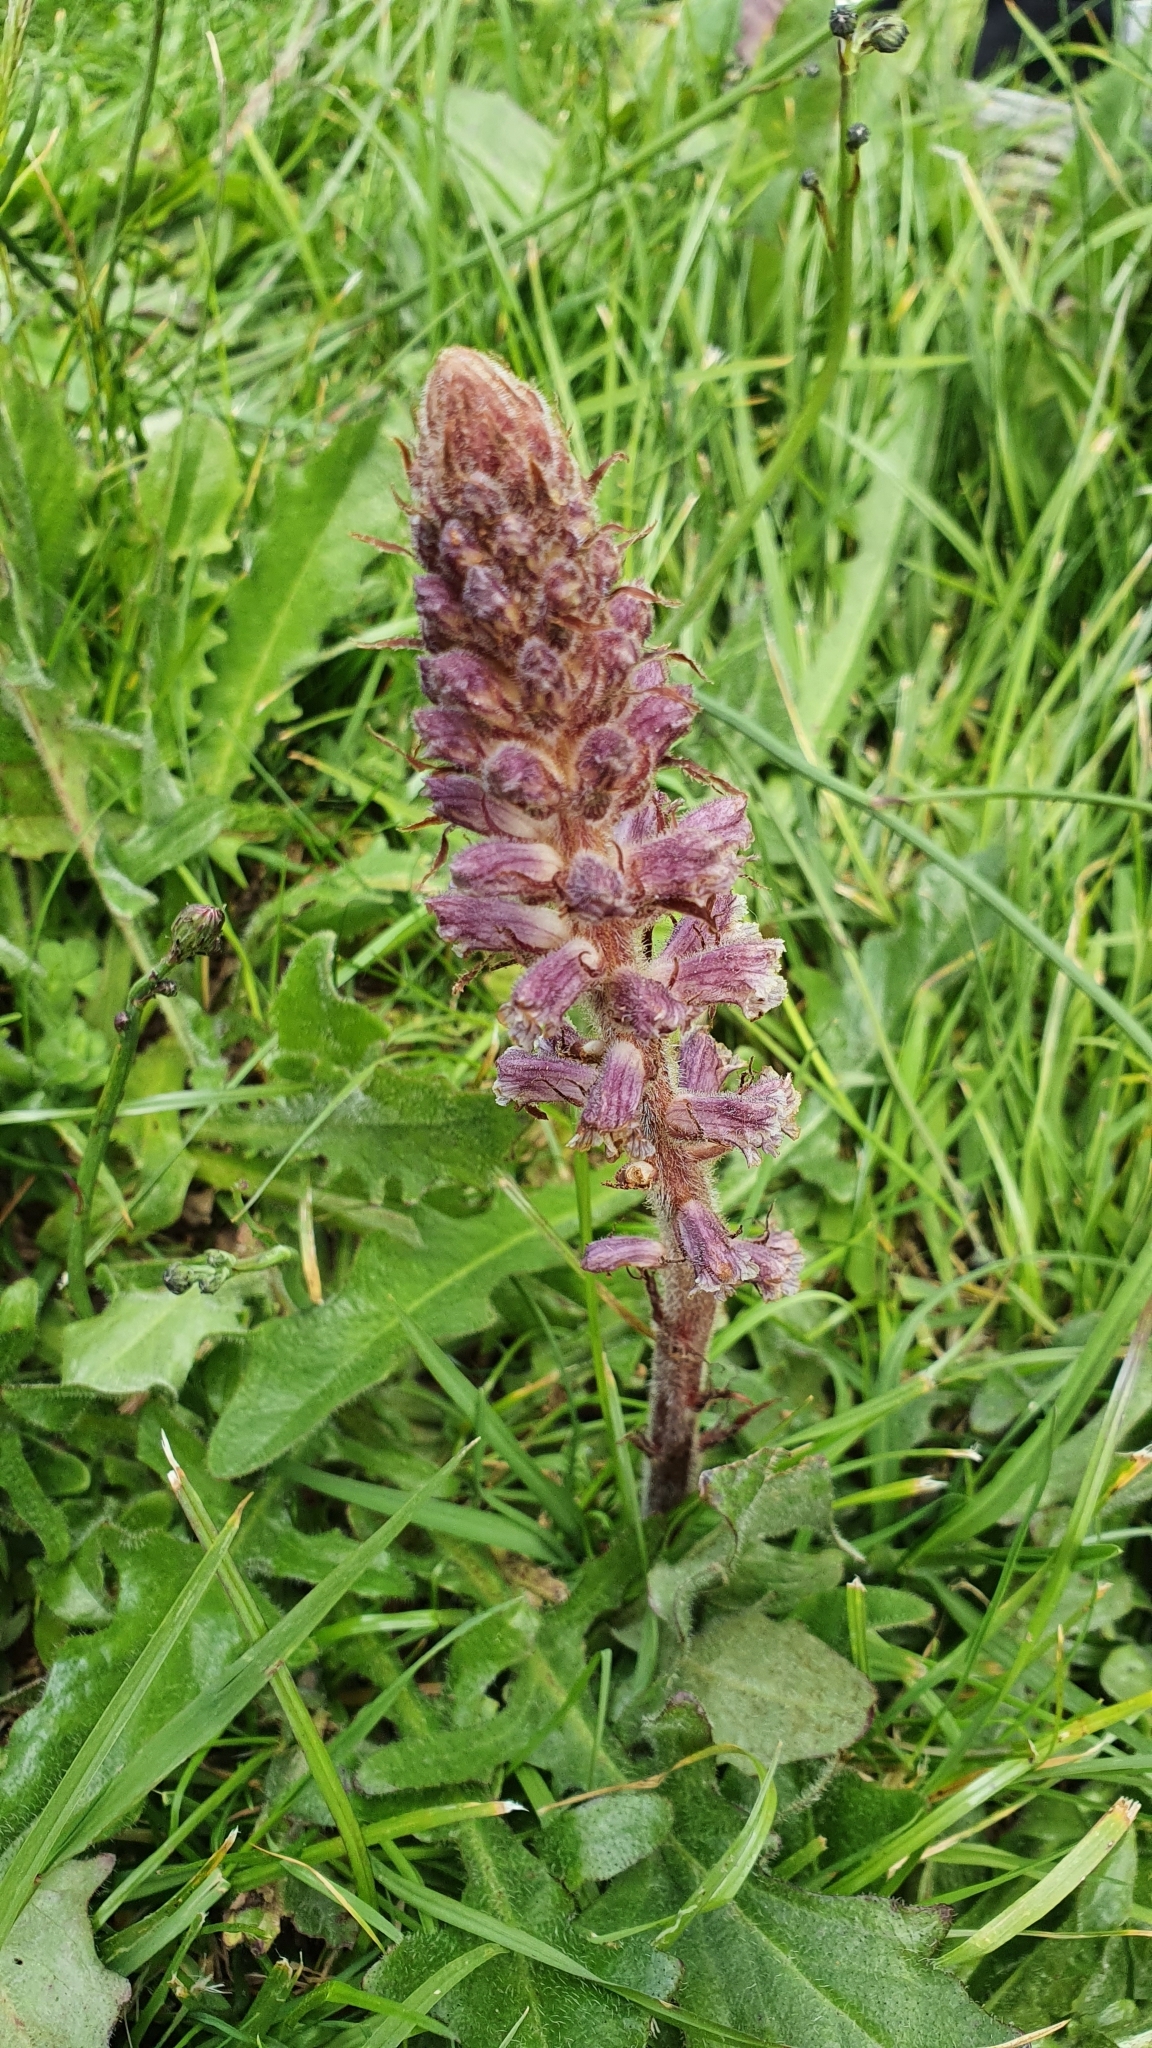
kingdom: Plantae
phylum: Tracheophyta
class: Magnoliopsida
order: Lamiales
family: Orobanchaceae
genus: Orobanche
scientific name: Orobanche minor
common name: Common broomrape
